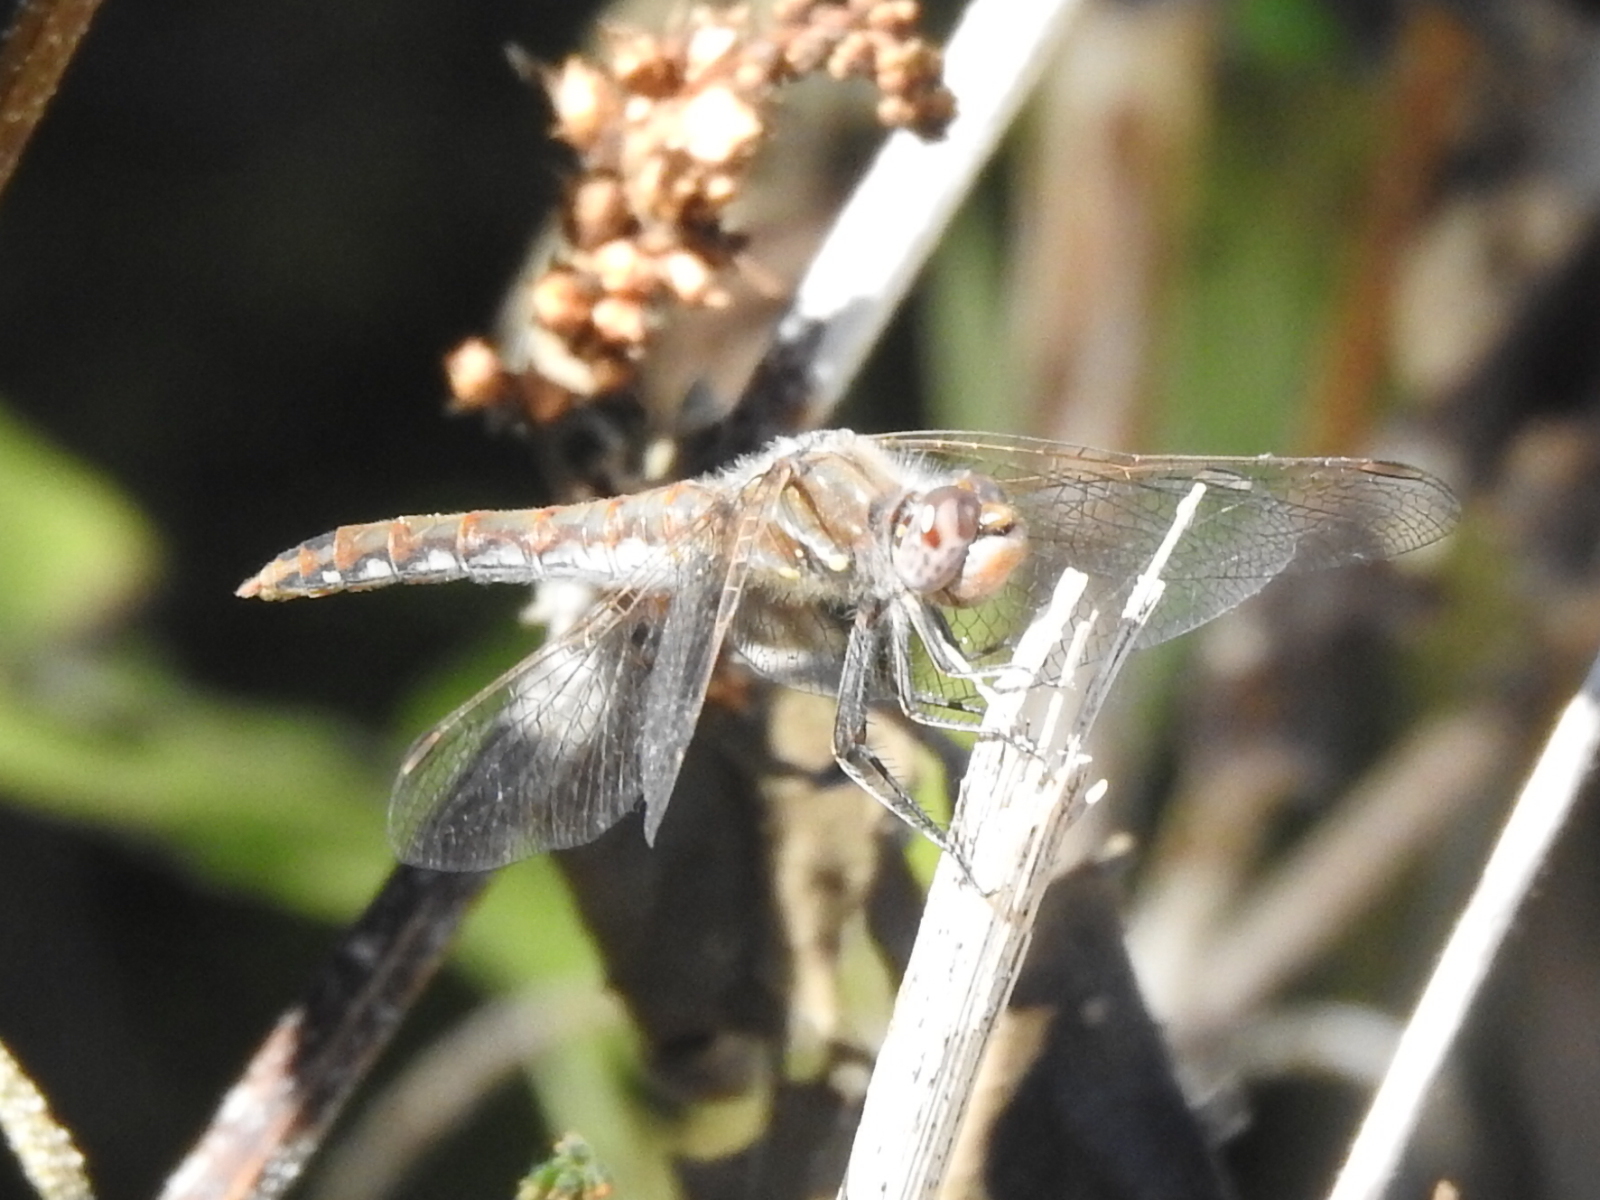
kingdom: Animalia
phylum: Arthropoda
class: Insecta
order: Odonata
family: Libellulidae
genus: Sympetrum
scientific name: Sympetrum corruptum
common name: Variegated meadowhawk
